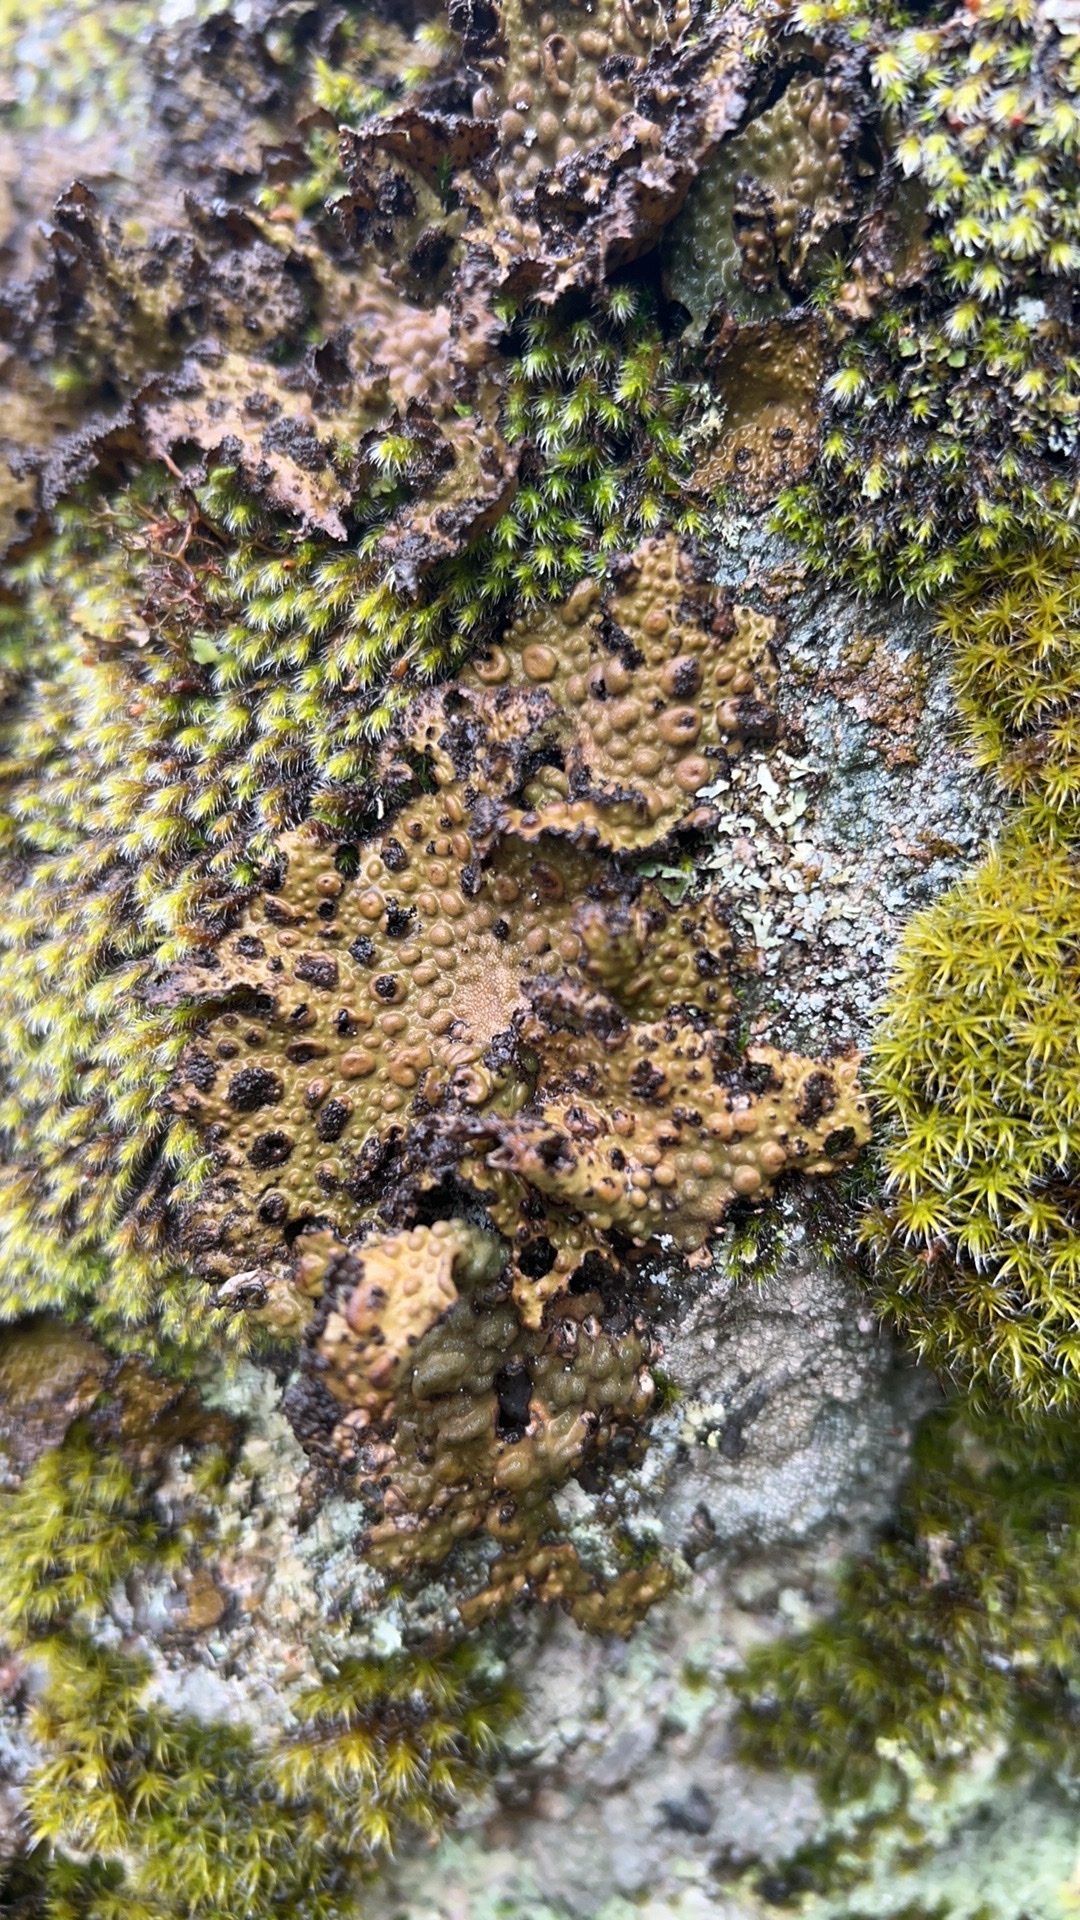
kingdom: Fungi
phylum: Ascomycota
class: Lecanoromycetes
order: Umbilicariales
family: Umbilicariaceae
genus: Lasallia
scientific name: Lasallia pustulata
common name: Blistered toadskin lichen
